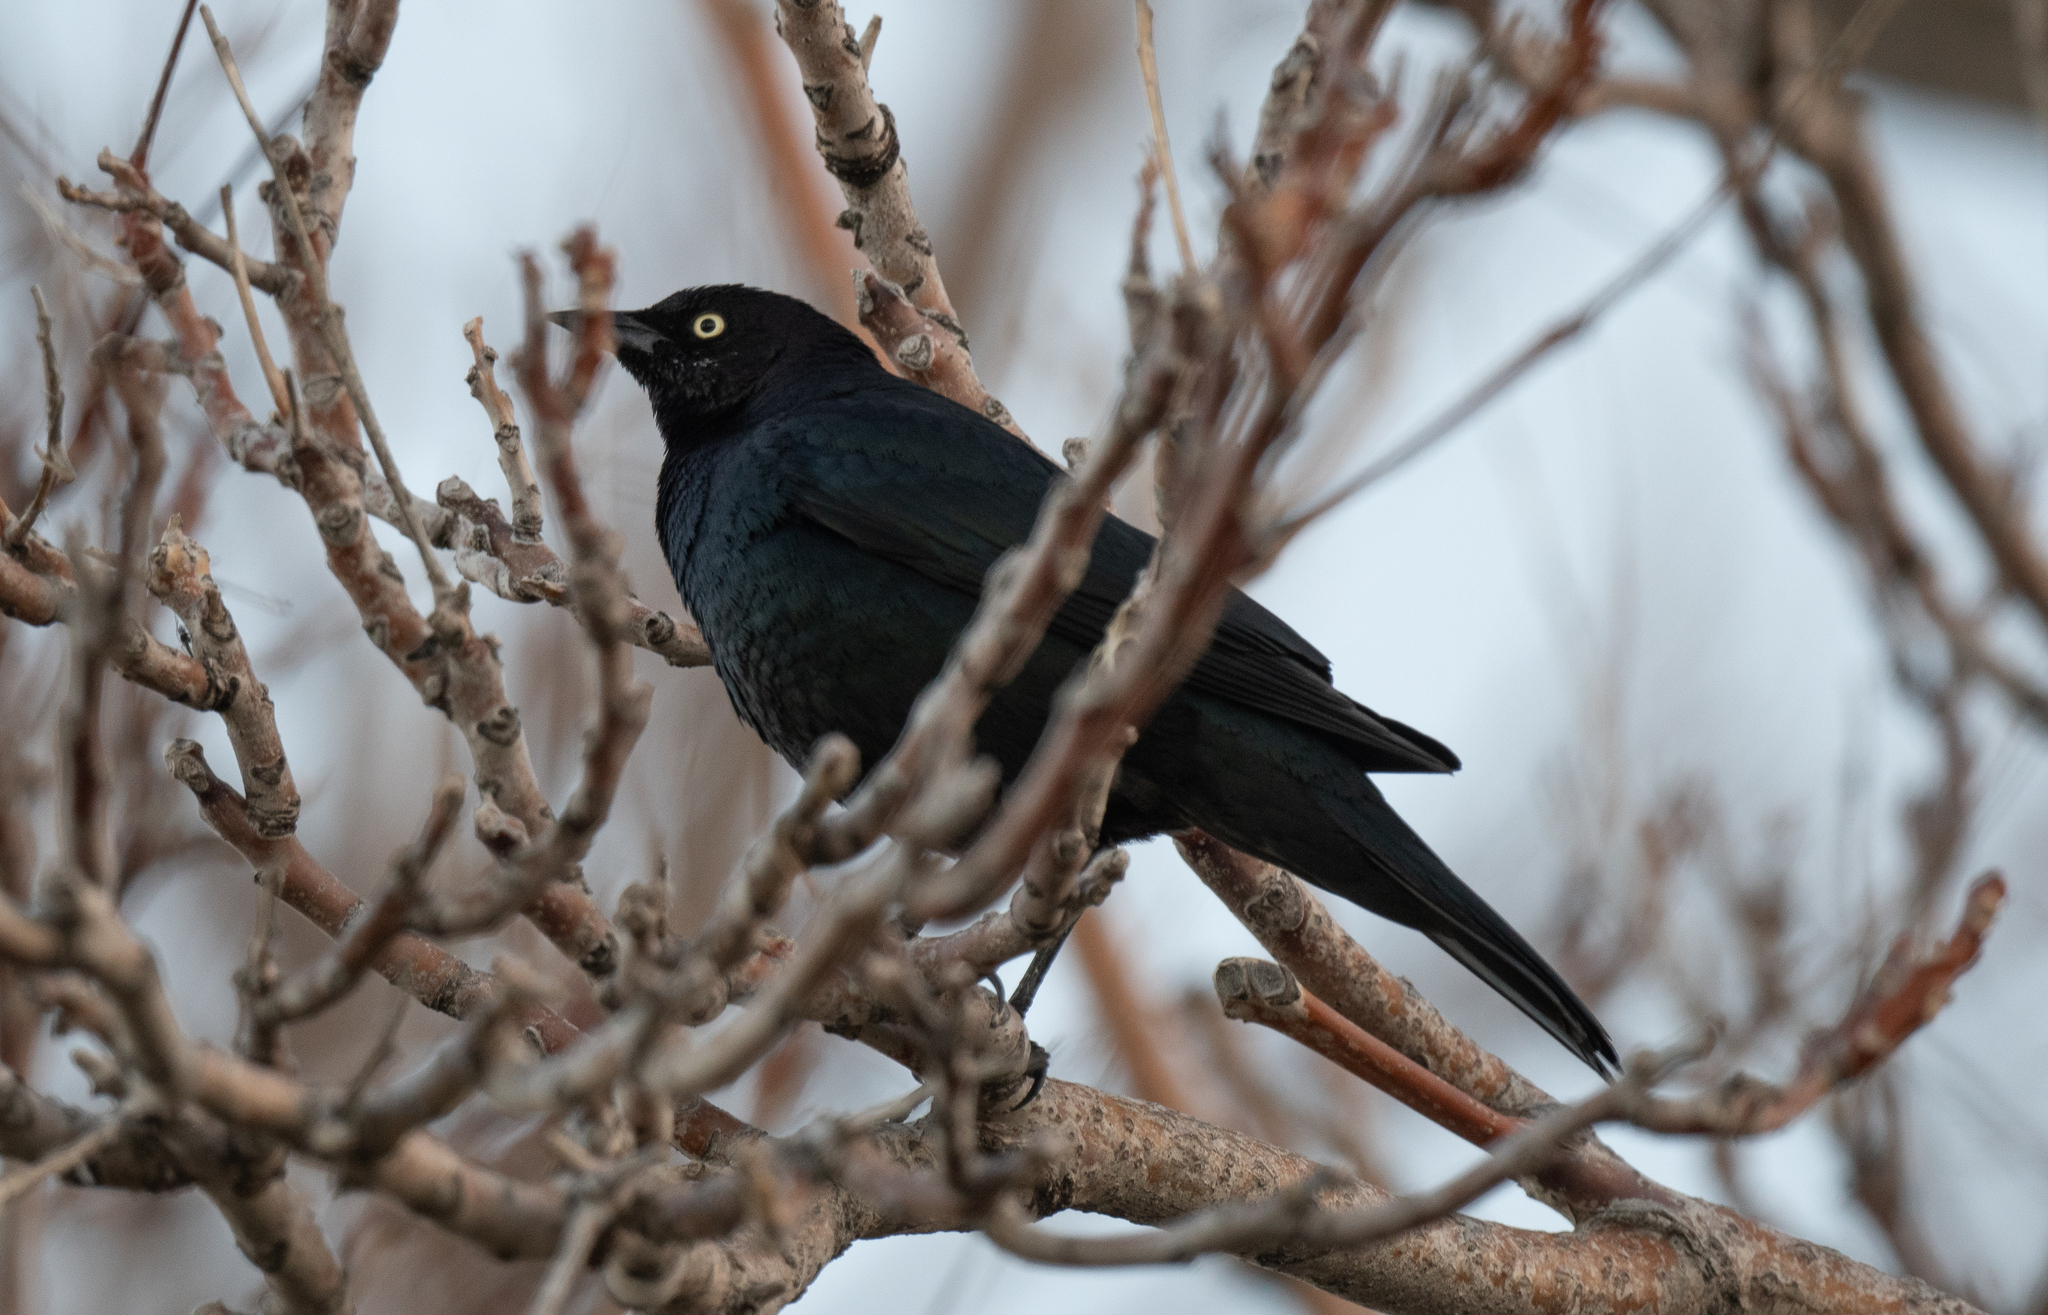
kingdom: Animalia
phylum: Chordata
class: Aves
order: Passeriformes
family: Icteridae
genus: Euphagus
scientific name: Euphagus cyanocephalus
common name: Brewer's blackbird
